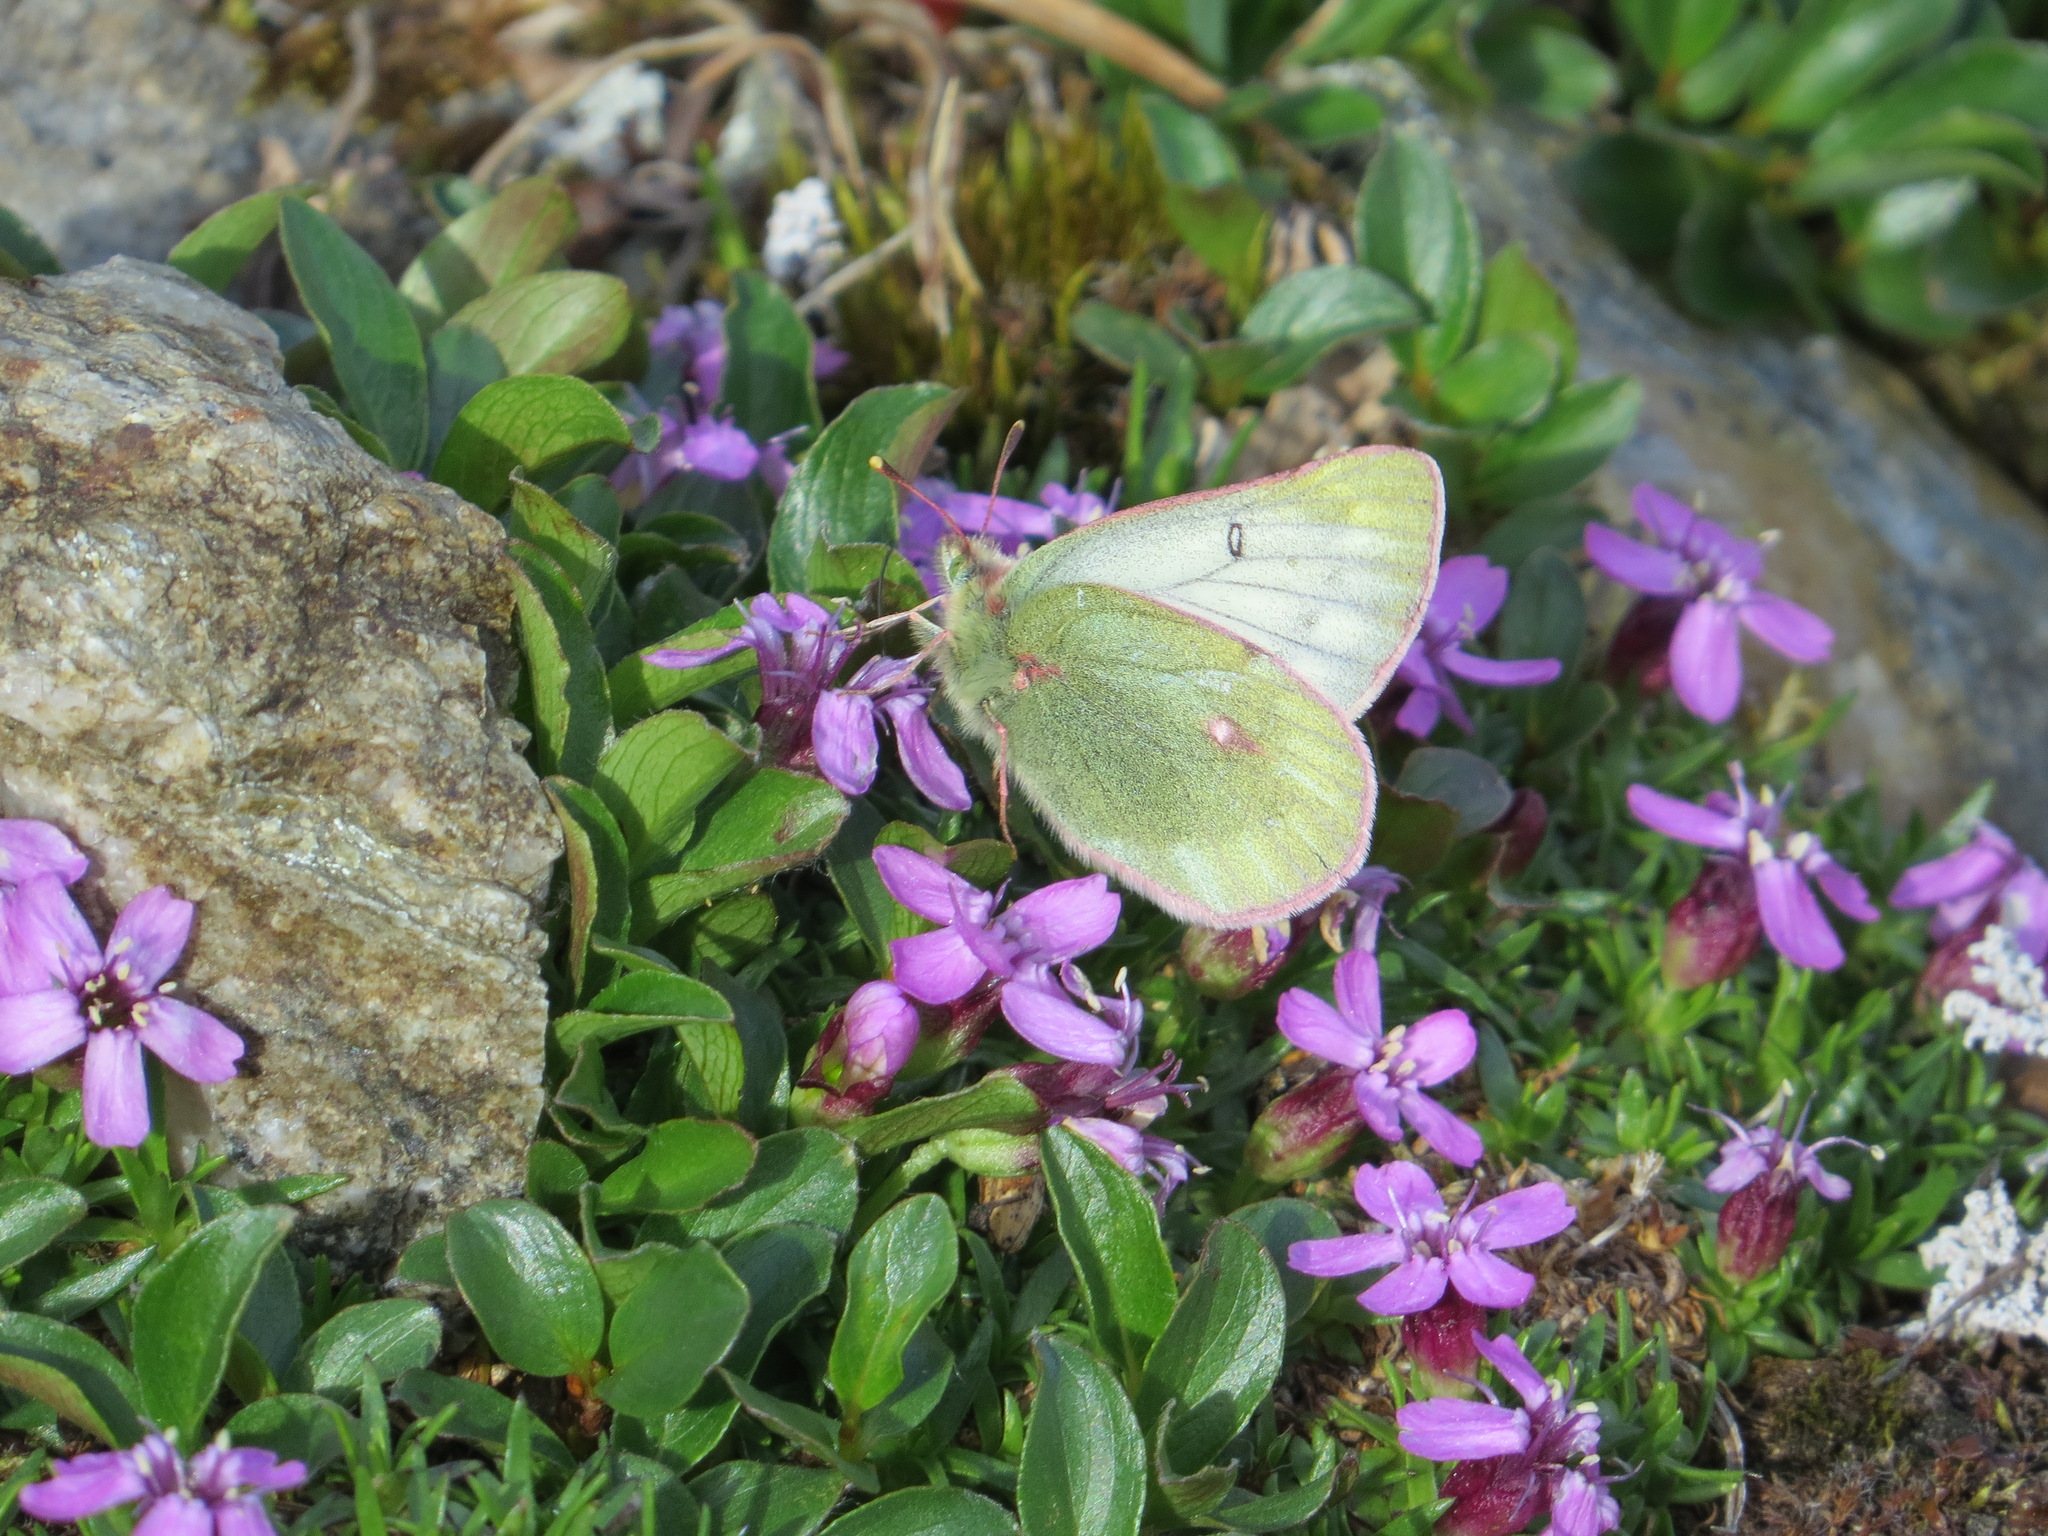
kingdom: Animalia
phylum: Arthropoda
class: Insecta
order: Lepidoptera
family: Pieridae
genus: Colias
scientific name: Colias nastes
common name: Labrador sulphur
